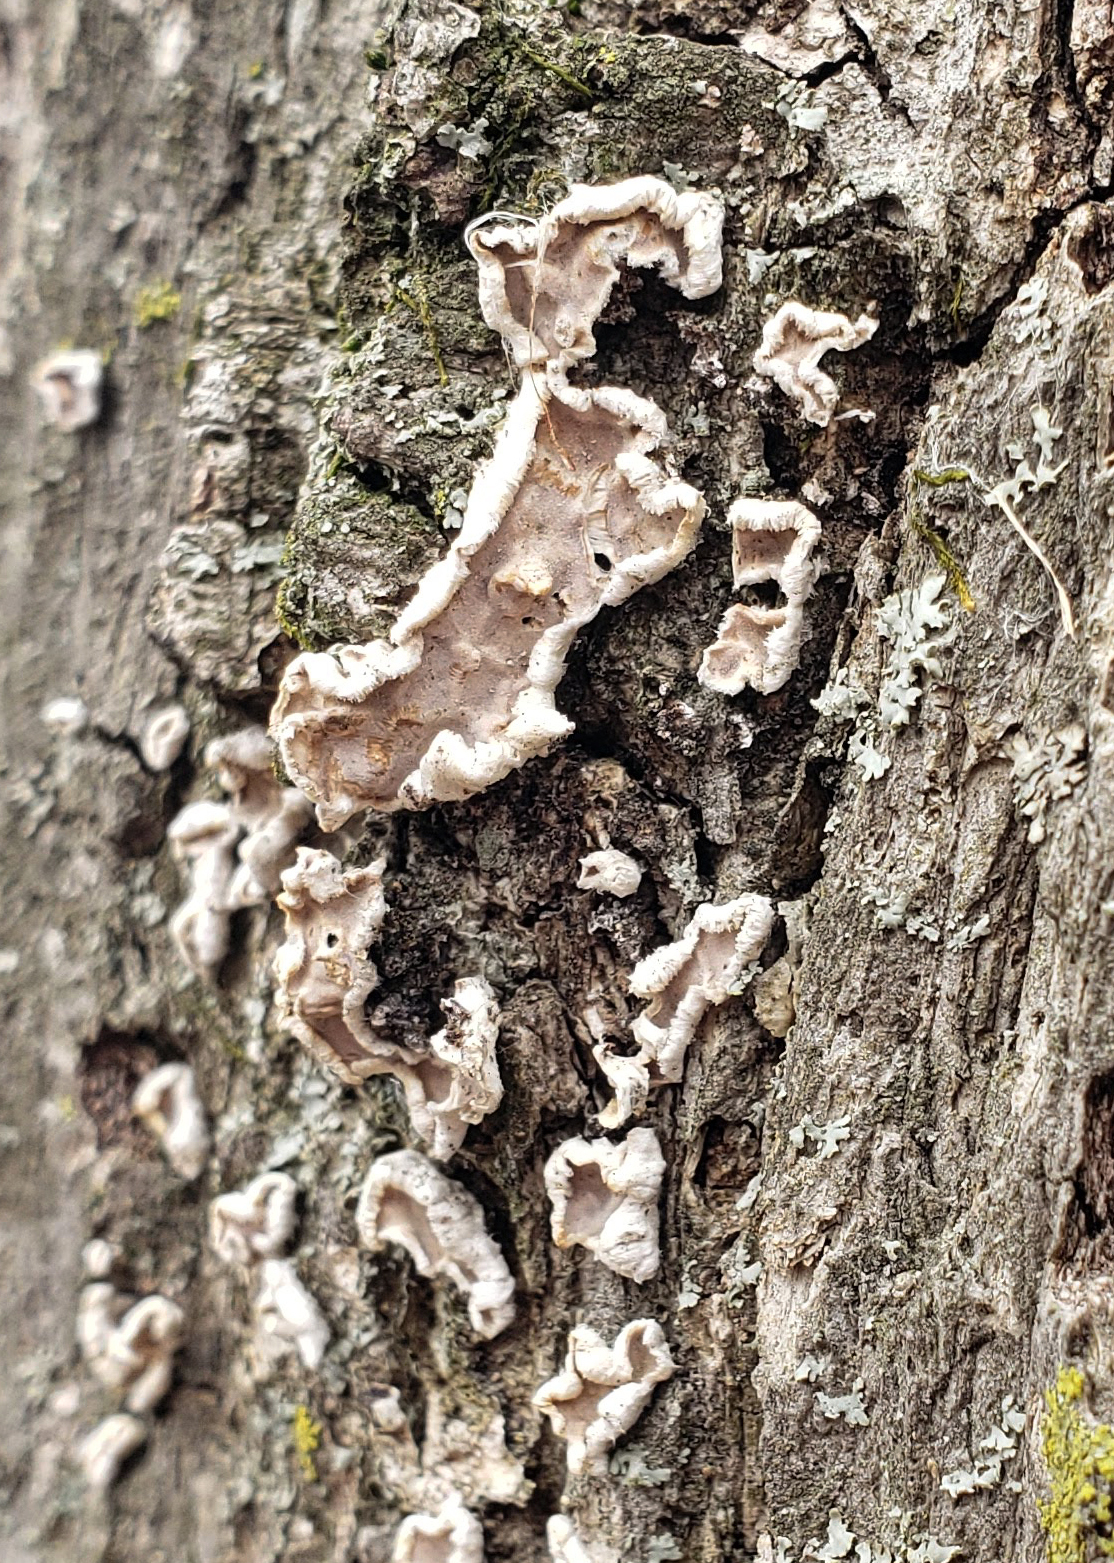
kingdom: Fungi
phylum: Basidiomycota
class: Agaricomycetes
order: Russulales
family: Stereaceae
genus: Acanthophysium
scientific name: Acanthophysium oakesii
